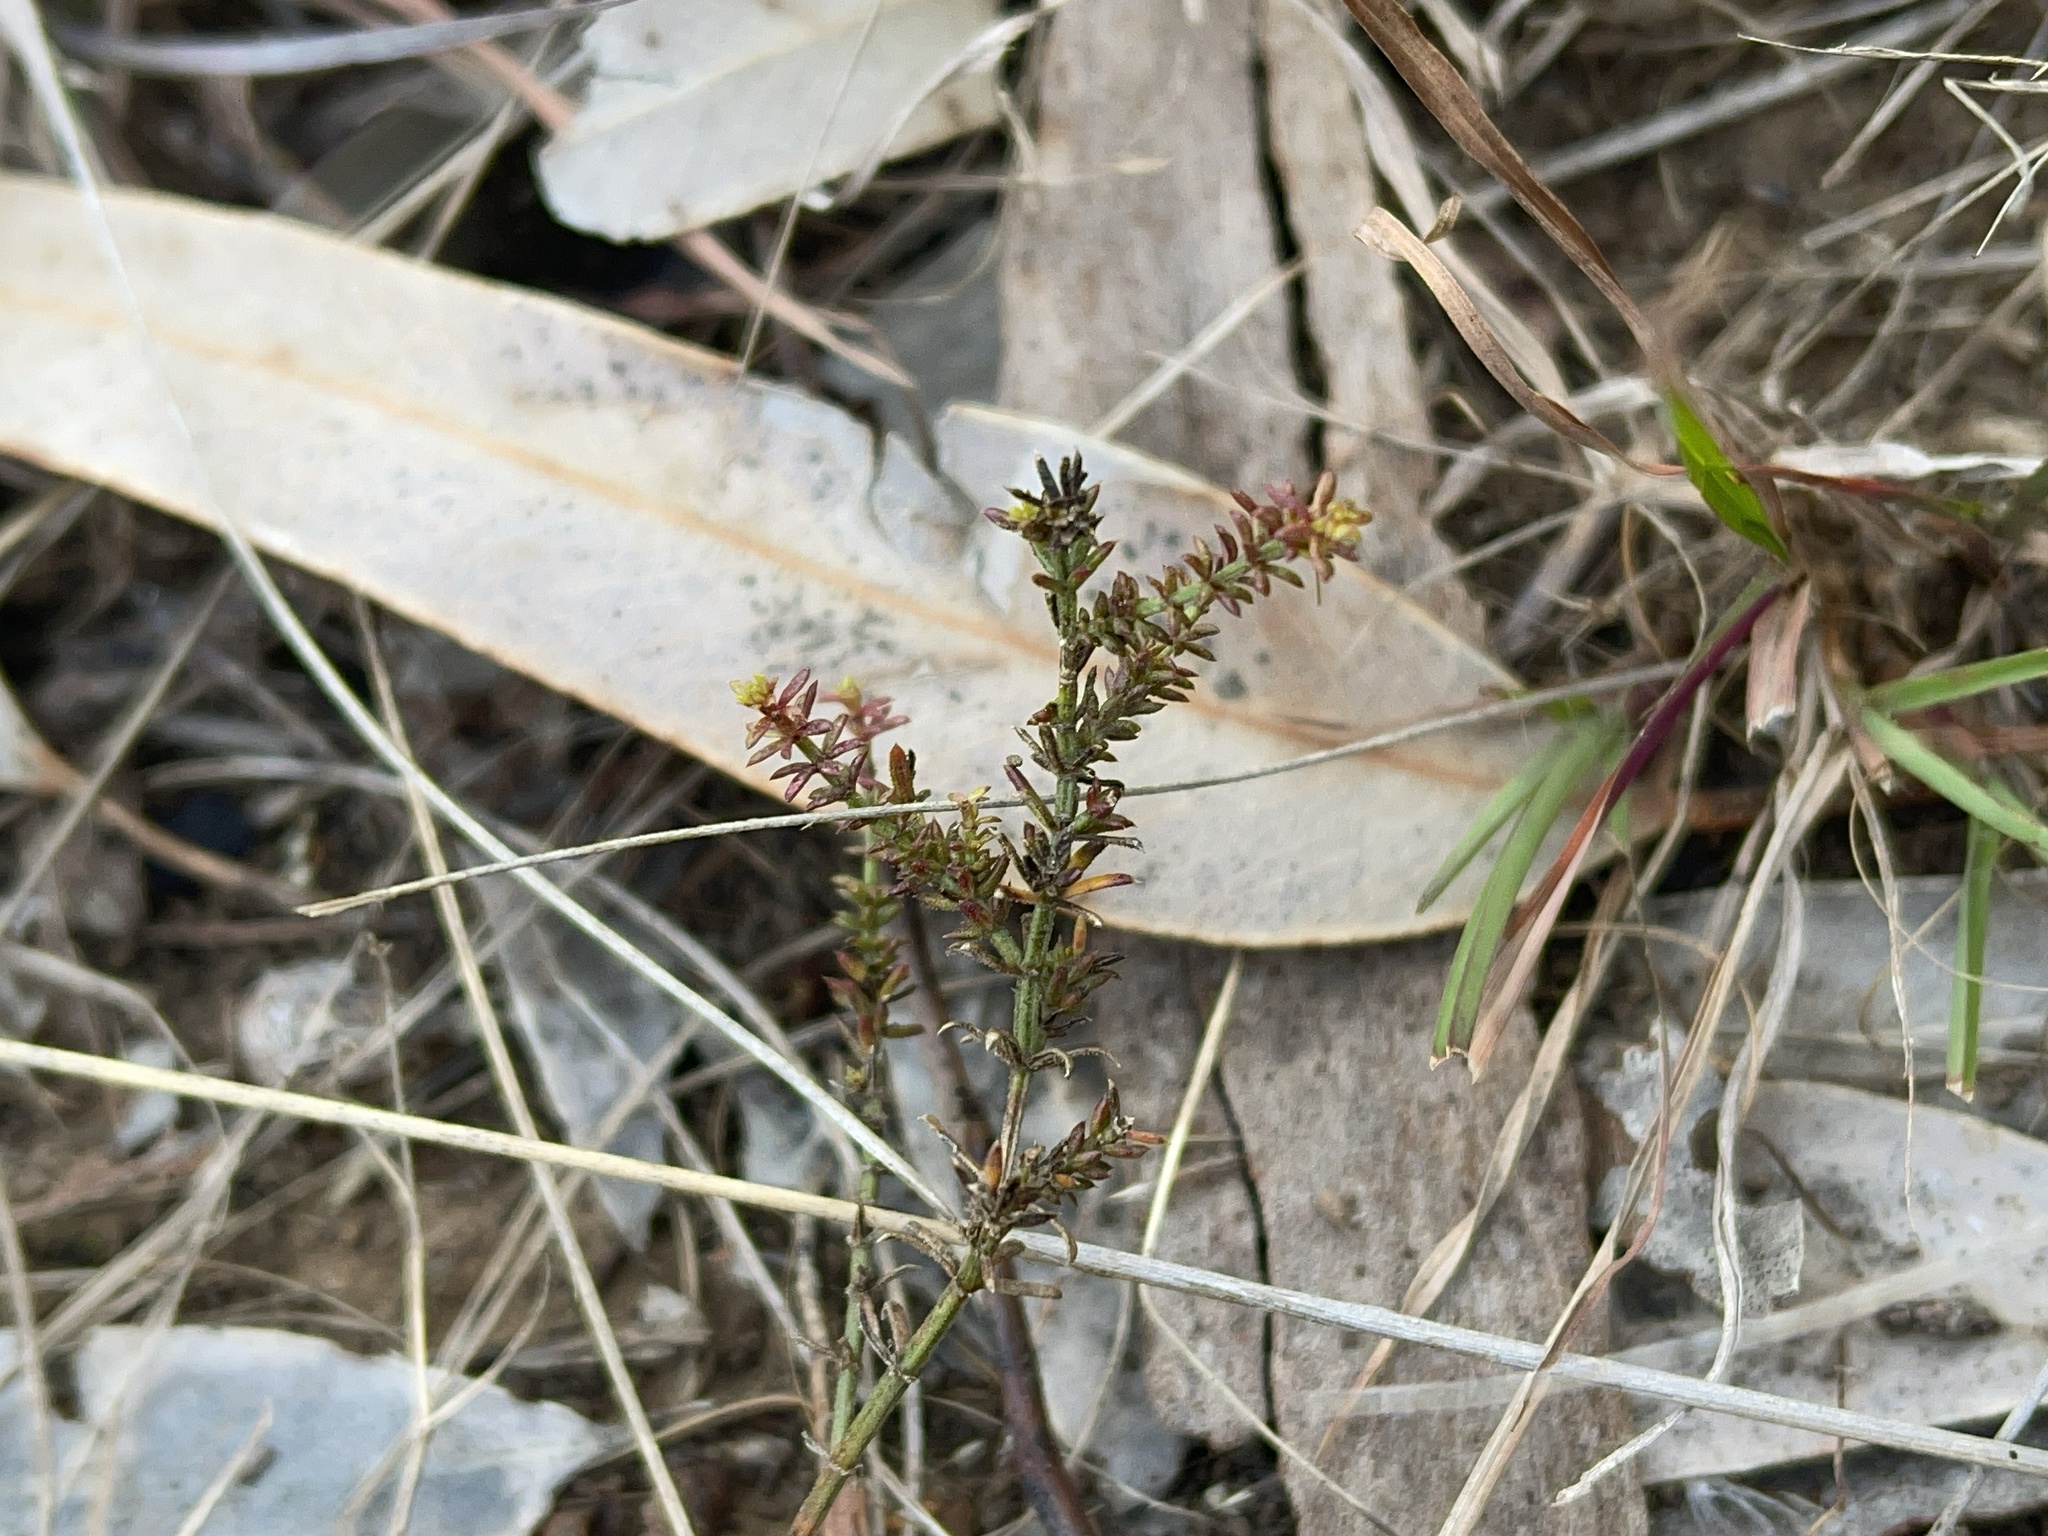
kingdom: Plantae
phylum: Tracheophyta
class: Magnoliopsida
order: Gentianales
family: Rubiaceae
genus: Asperula
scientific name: Asperula conferta
